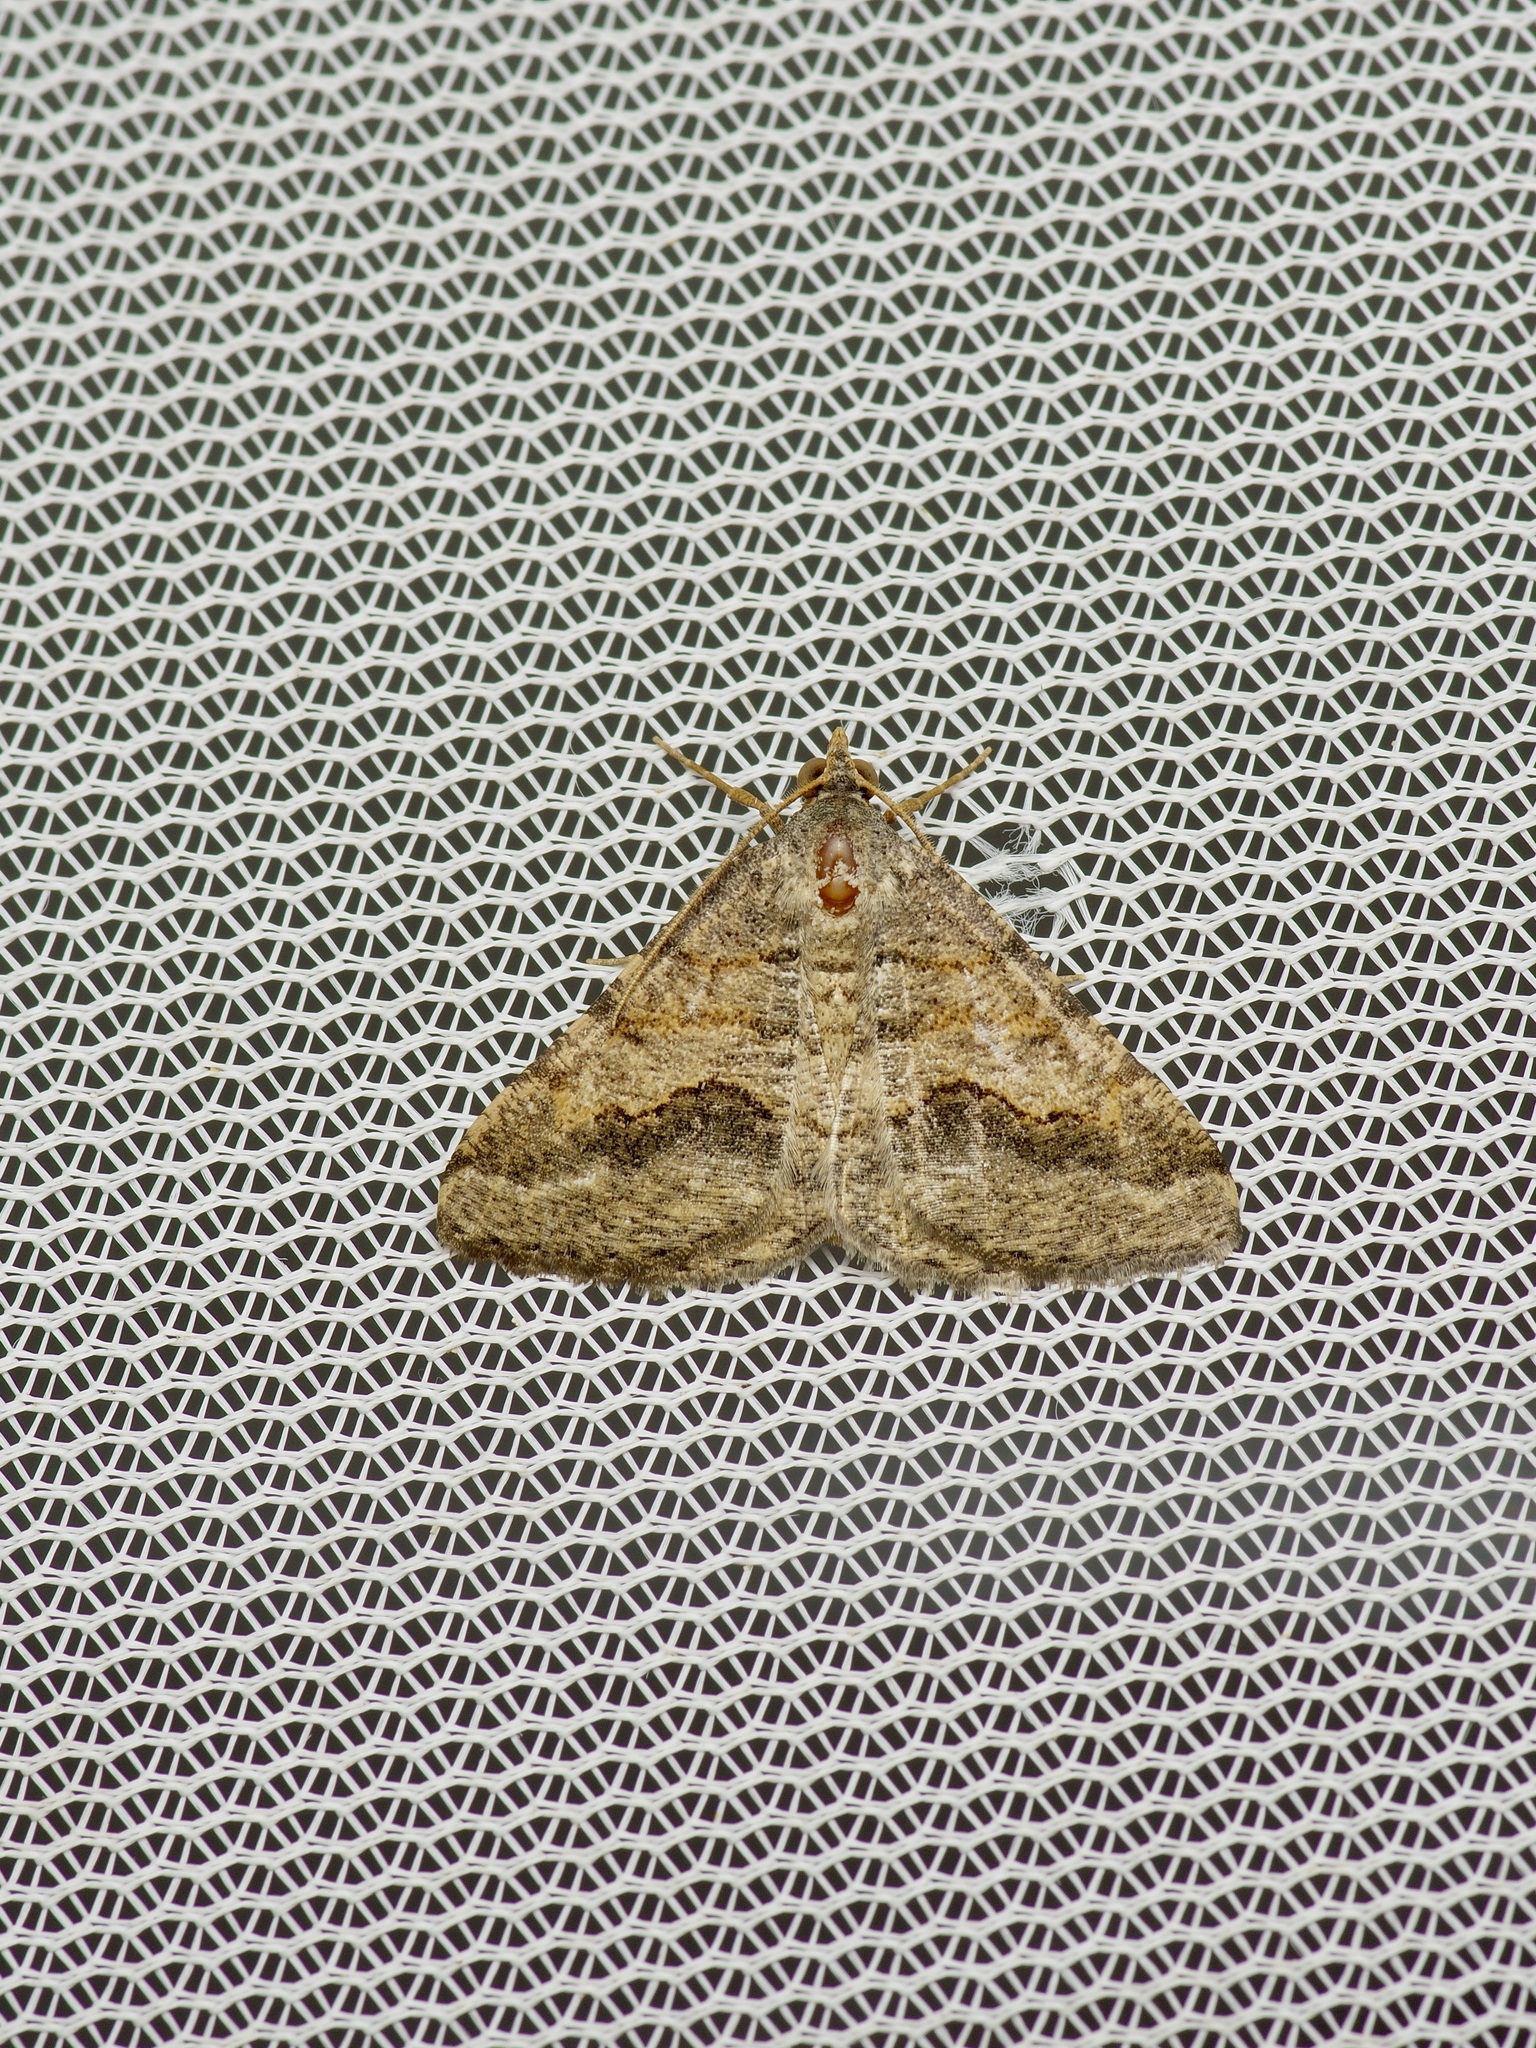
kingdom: Animalia
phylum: Arthropoda
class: Insecta
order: Lepidoptera
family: Geometridae
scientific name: Geometridae
